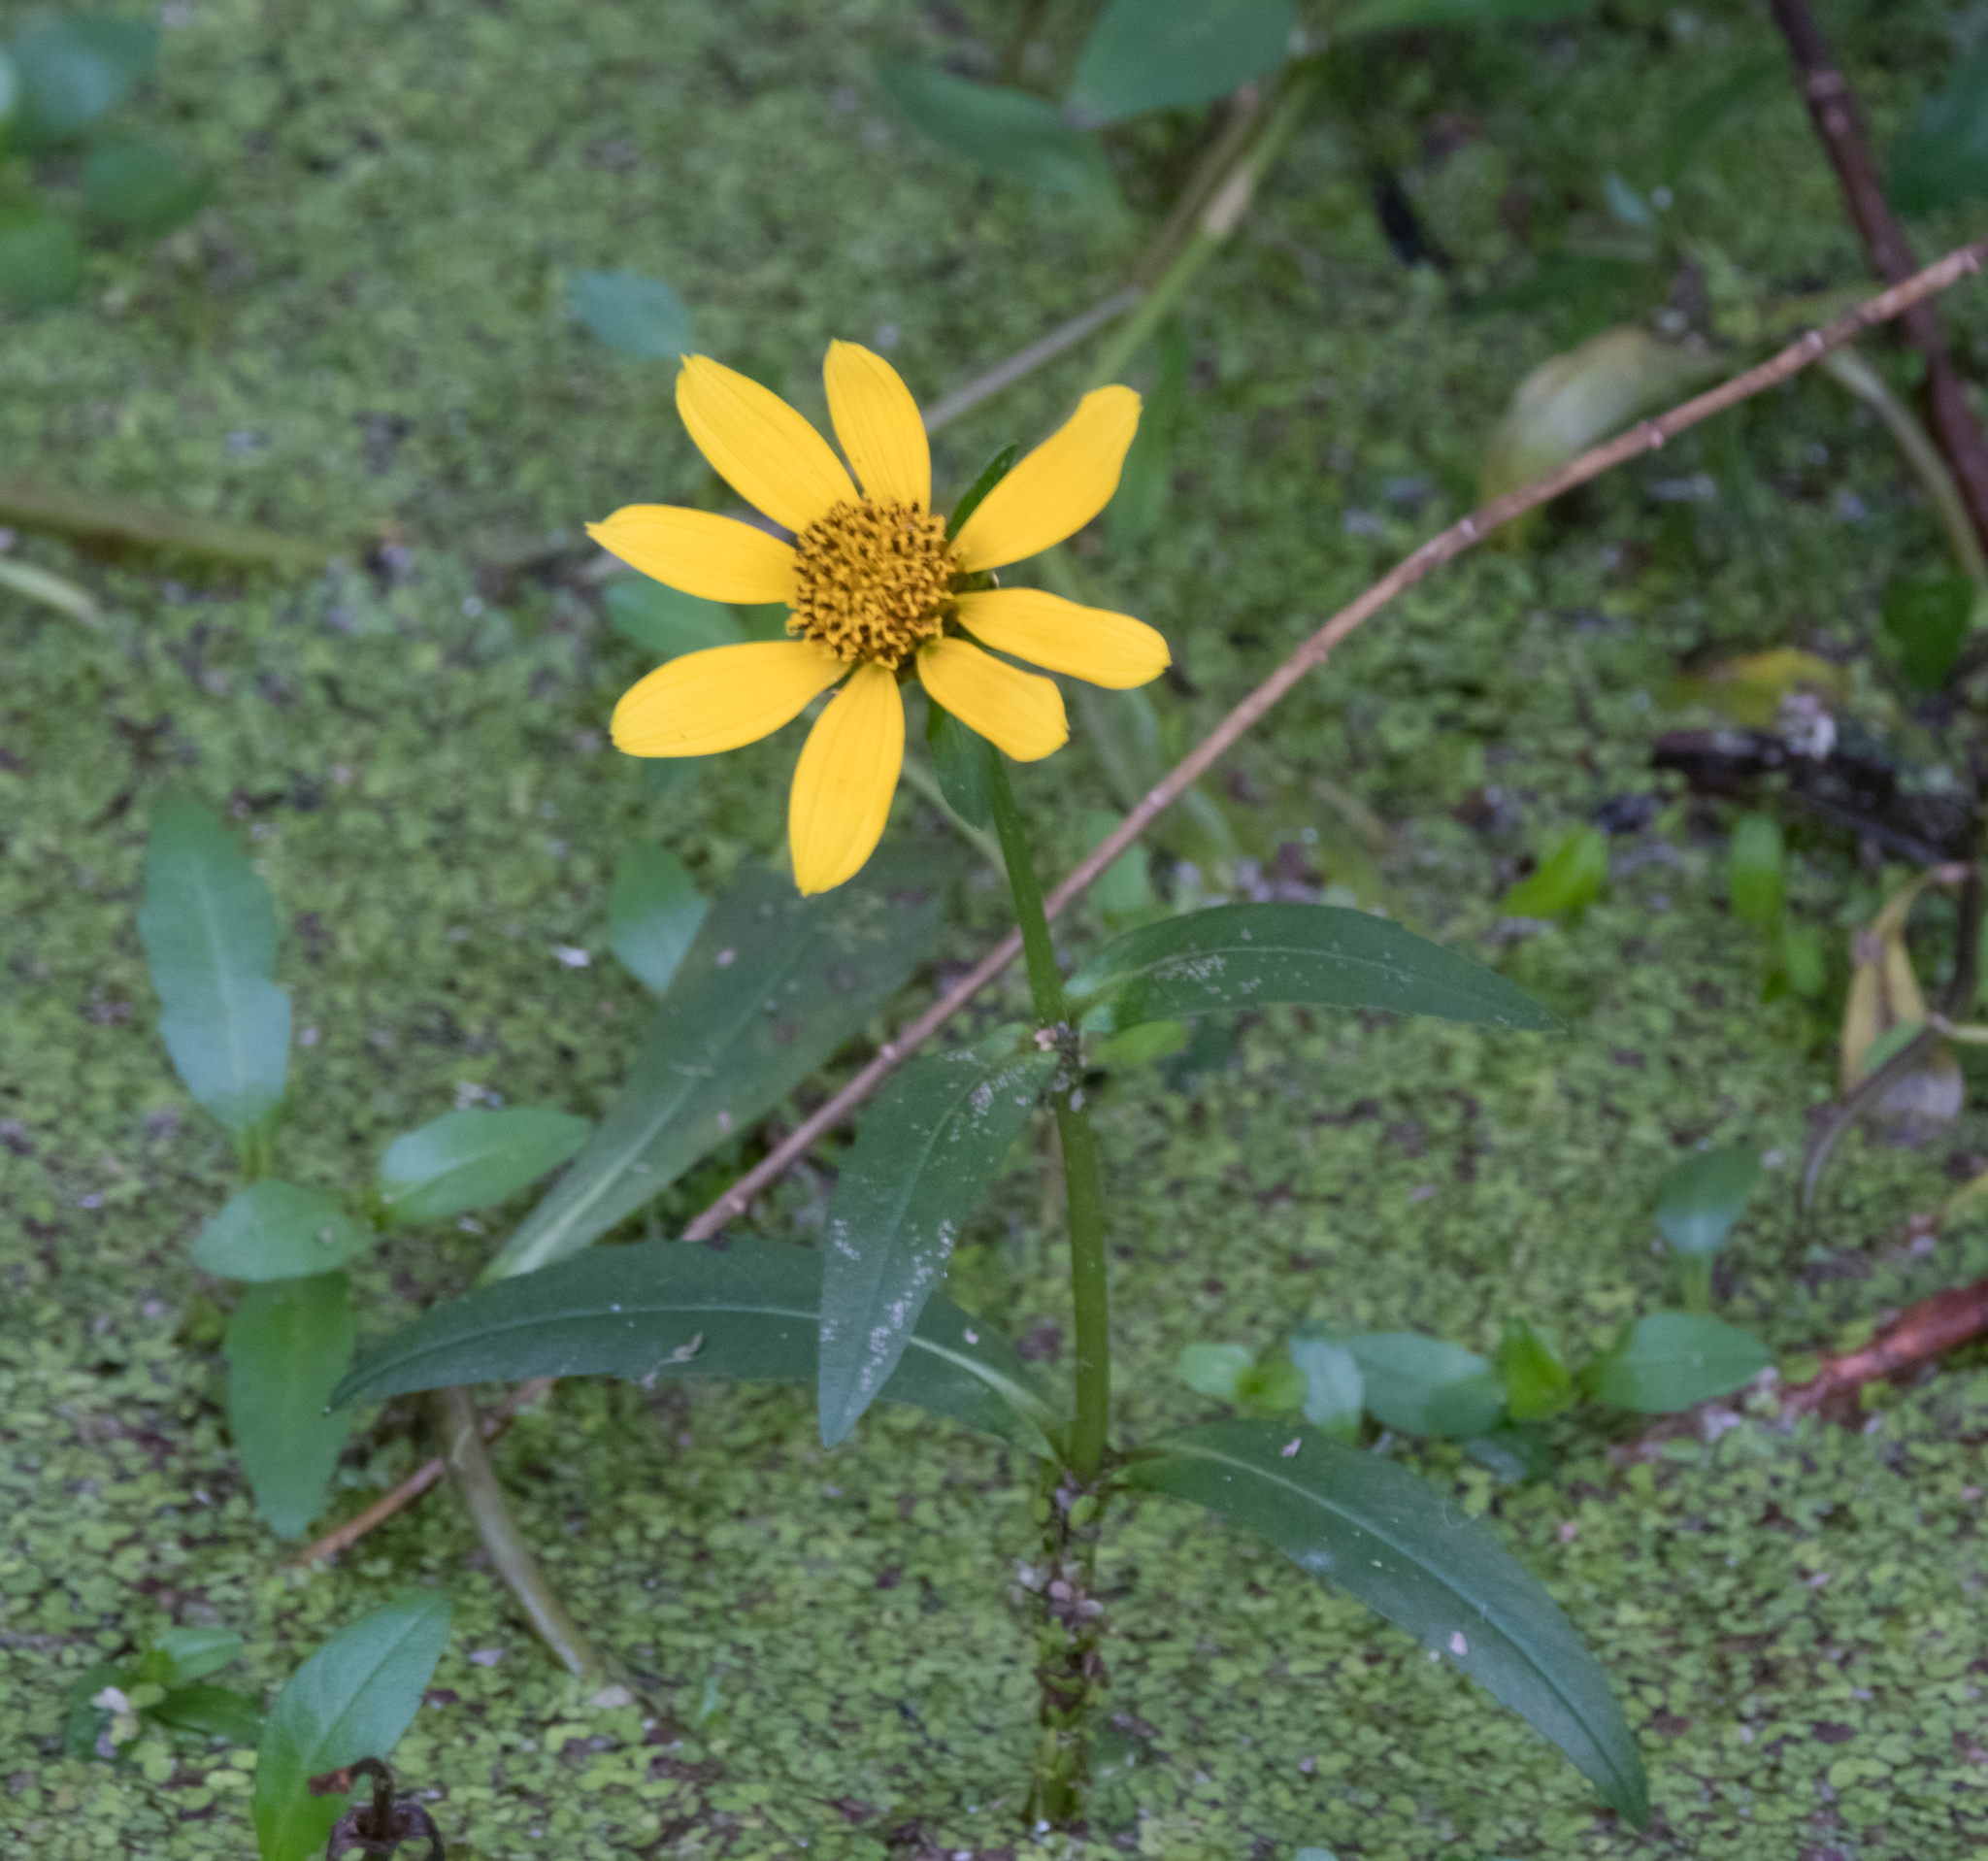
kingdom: Plantae
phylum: Tracheophyta
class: Magnoliopsida
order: Asterales
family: Asteraceae
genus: Bidens
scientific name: Bidens laevis
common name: Larger bur-marigold
